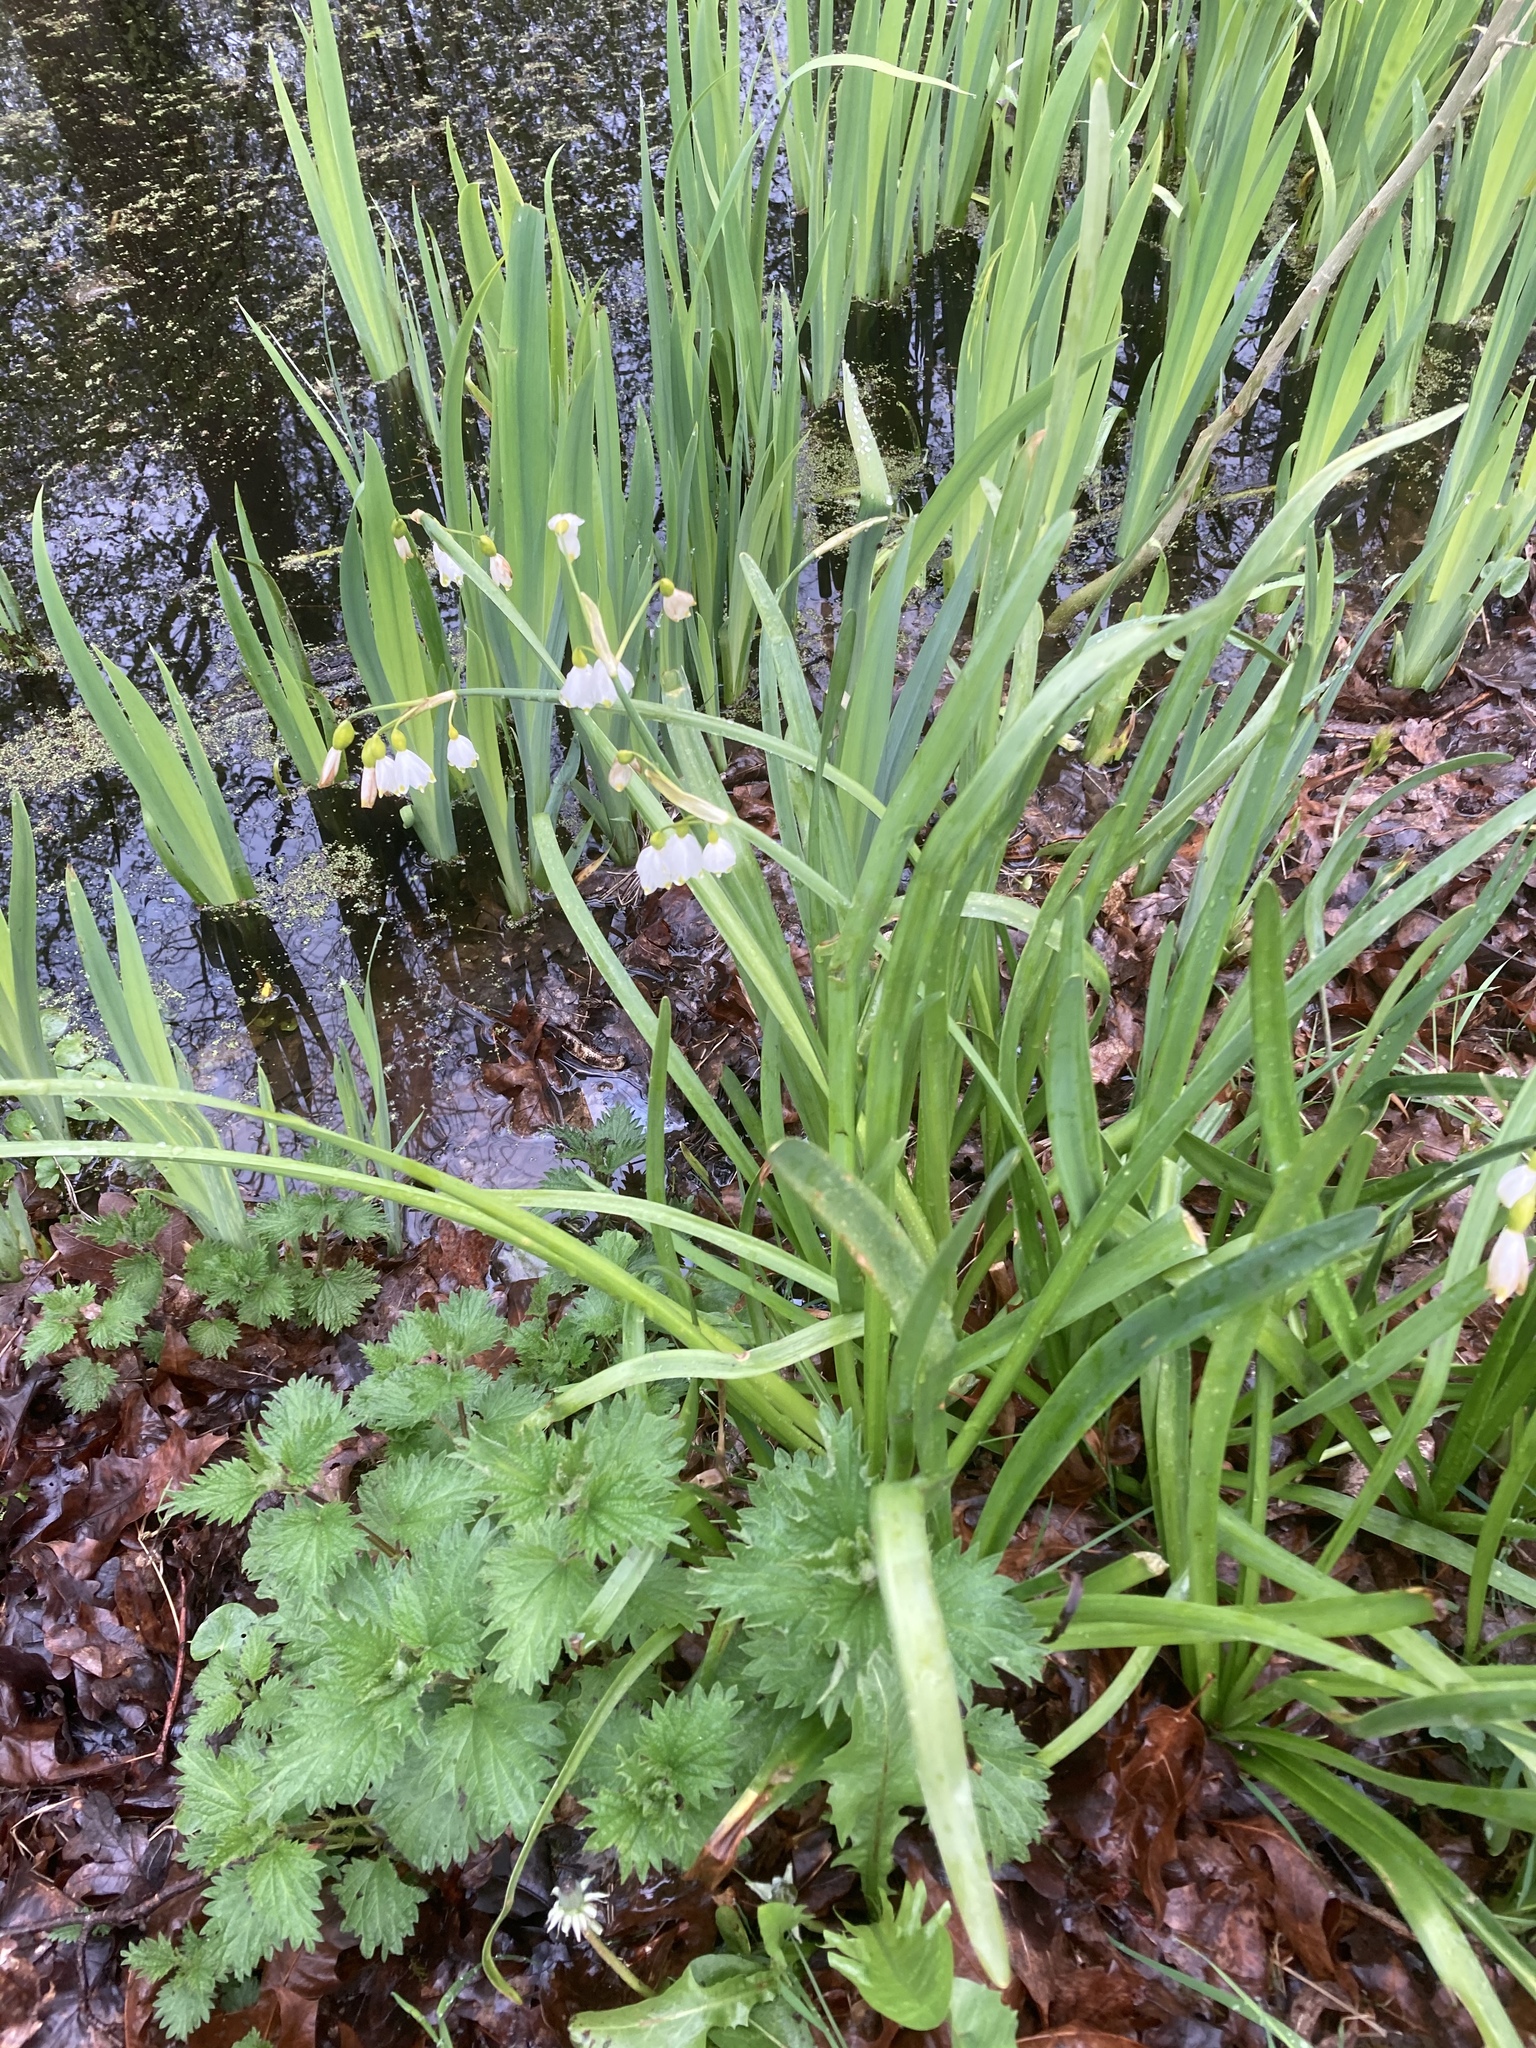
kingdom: Plantae
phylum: Tracheophyta
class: Liliopsida
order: Asparagales
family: Amaryllidaceae
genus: Leucojum
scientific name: Leucojum aestivum
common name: Summer snowflake
